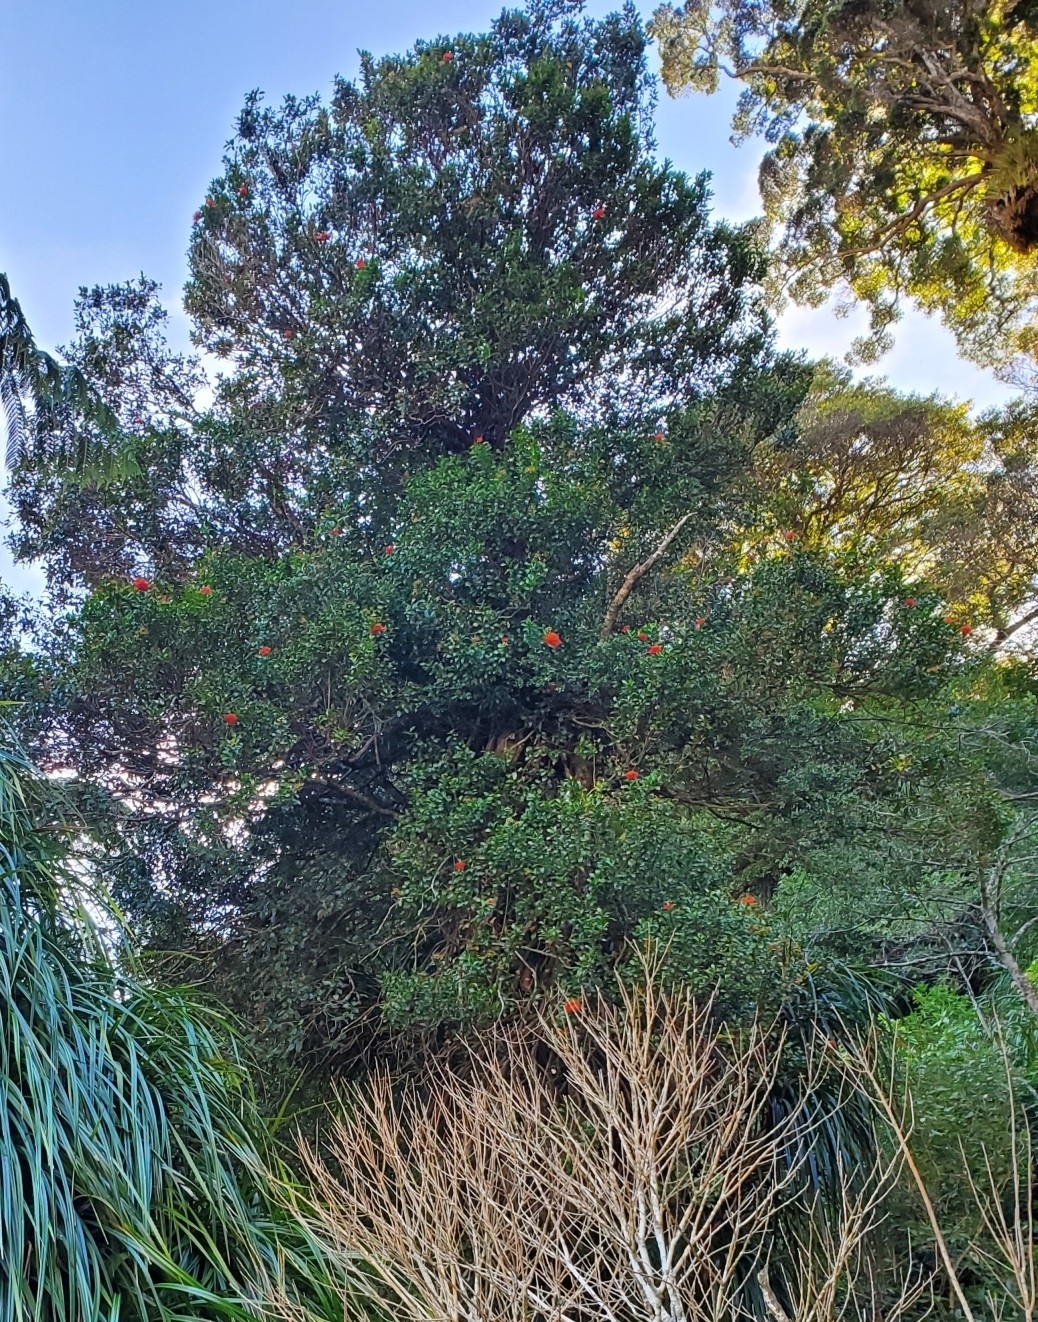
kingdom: Plantae
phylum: Tracheophyta
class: Magnoliopsida
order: Myrtales
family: Myrtaceae
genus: Metrosideros
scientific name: Metrosideros fulgens
